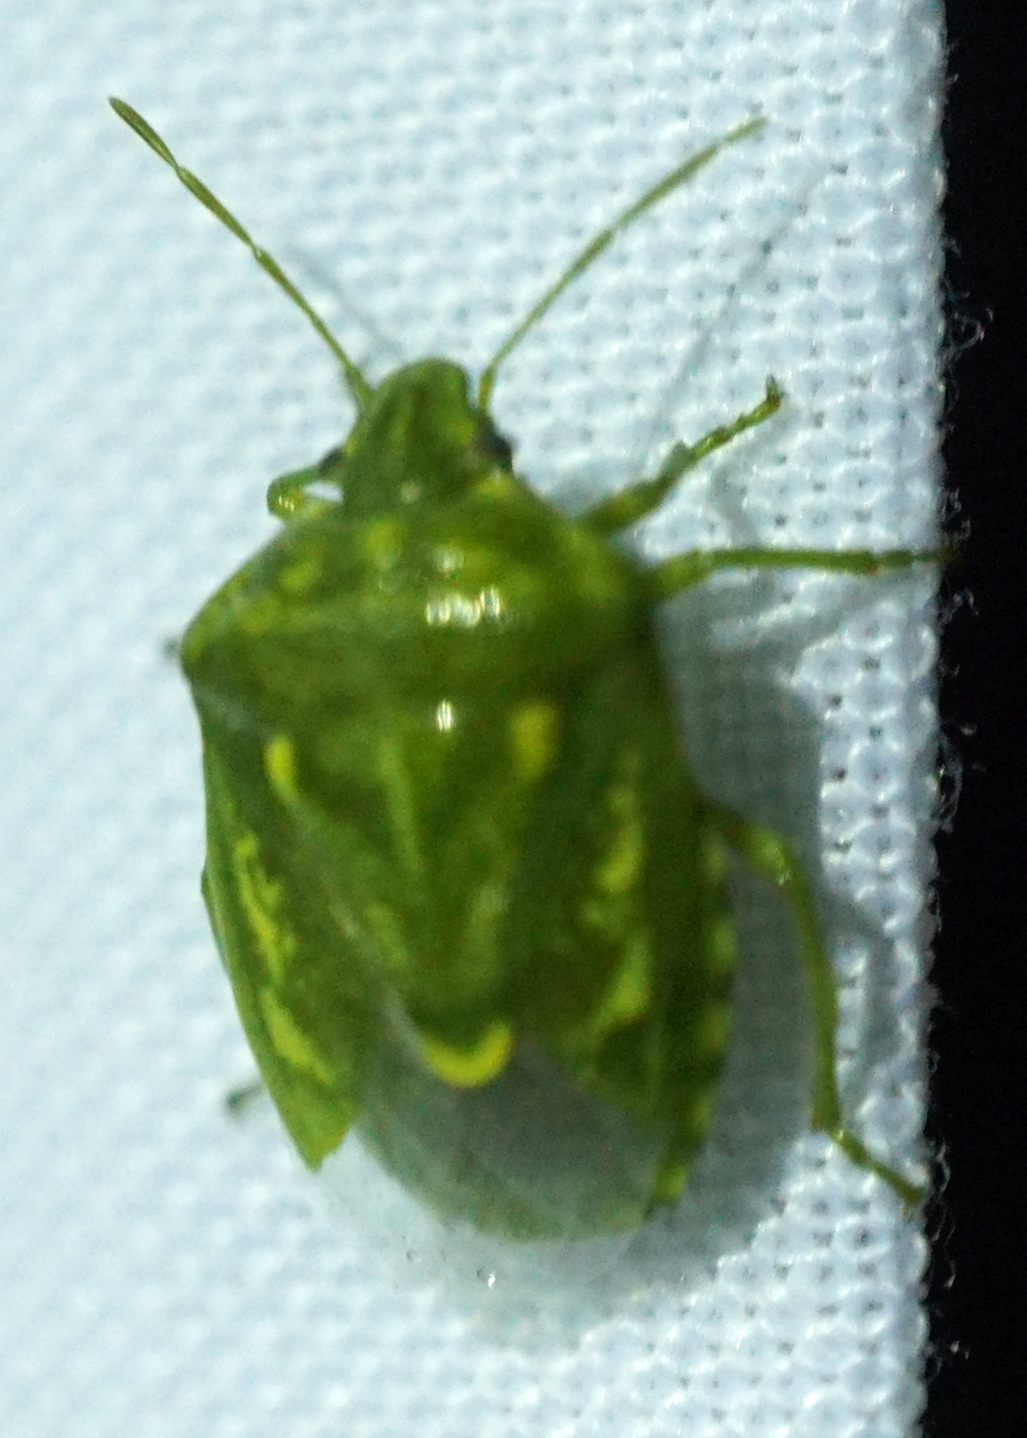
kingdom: Animalia
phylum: Arthropoda
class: Insecta
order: Hemiptera
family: Pentatomidae
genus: Banasa
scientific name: Banasa euchlora
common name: Cedar berry bug
